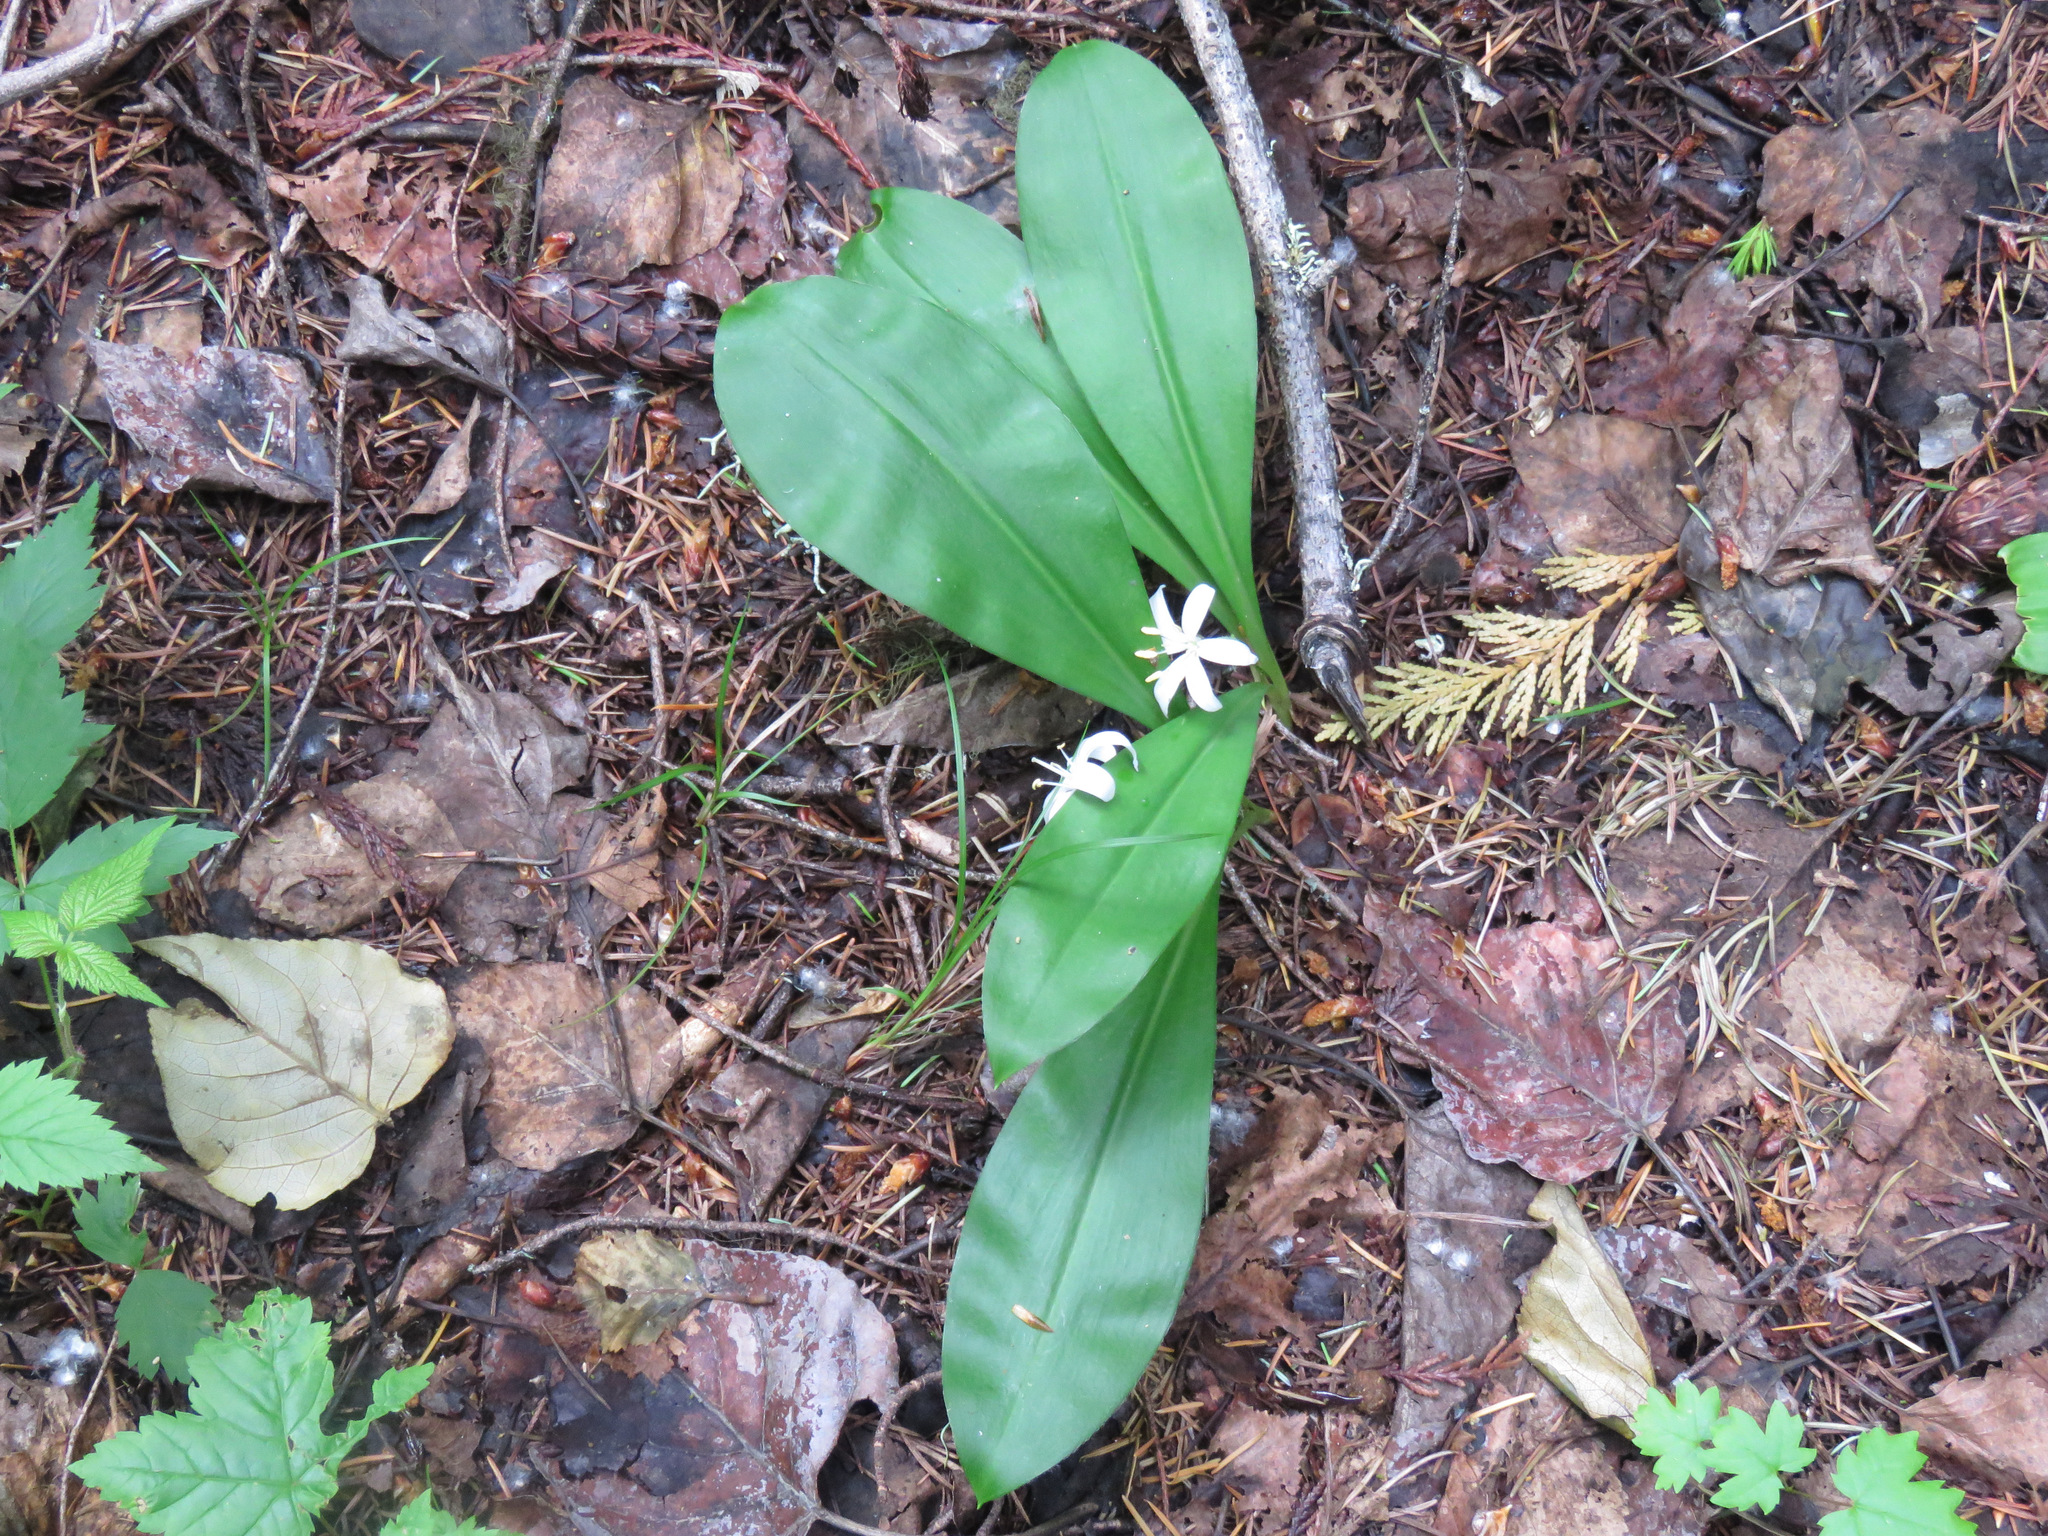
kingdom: Plantae
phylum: Tracheophyta
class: Liliopsida
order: Liliales
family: Liliaceae
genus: Clintonia
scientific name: Clintonia uniflora
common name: Queen's cup
